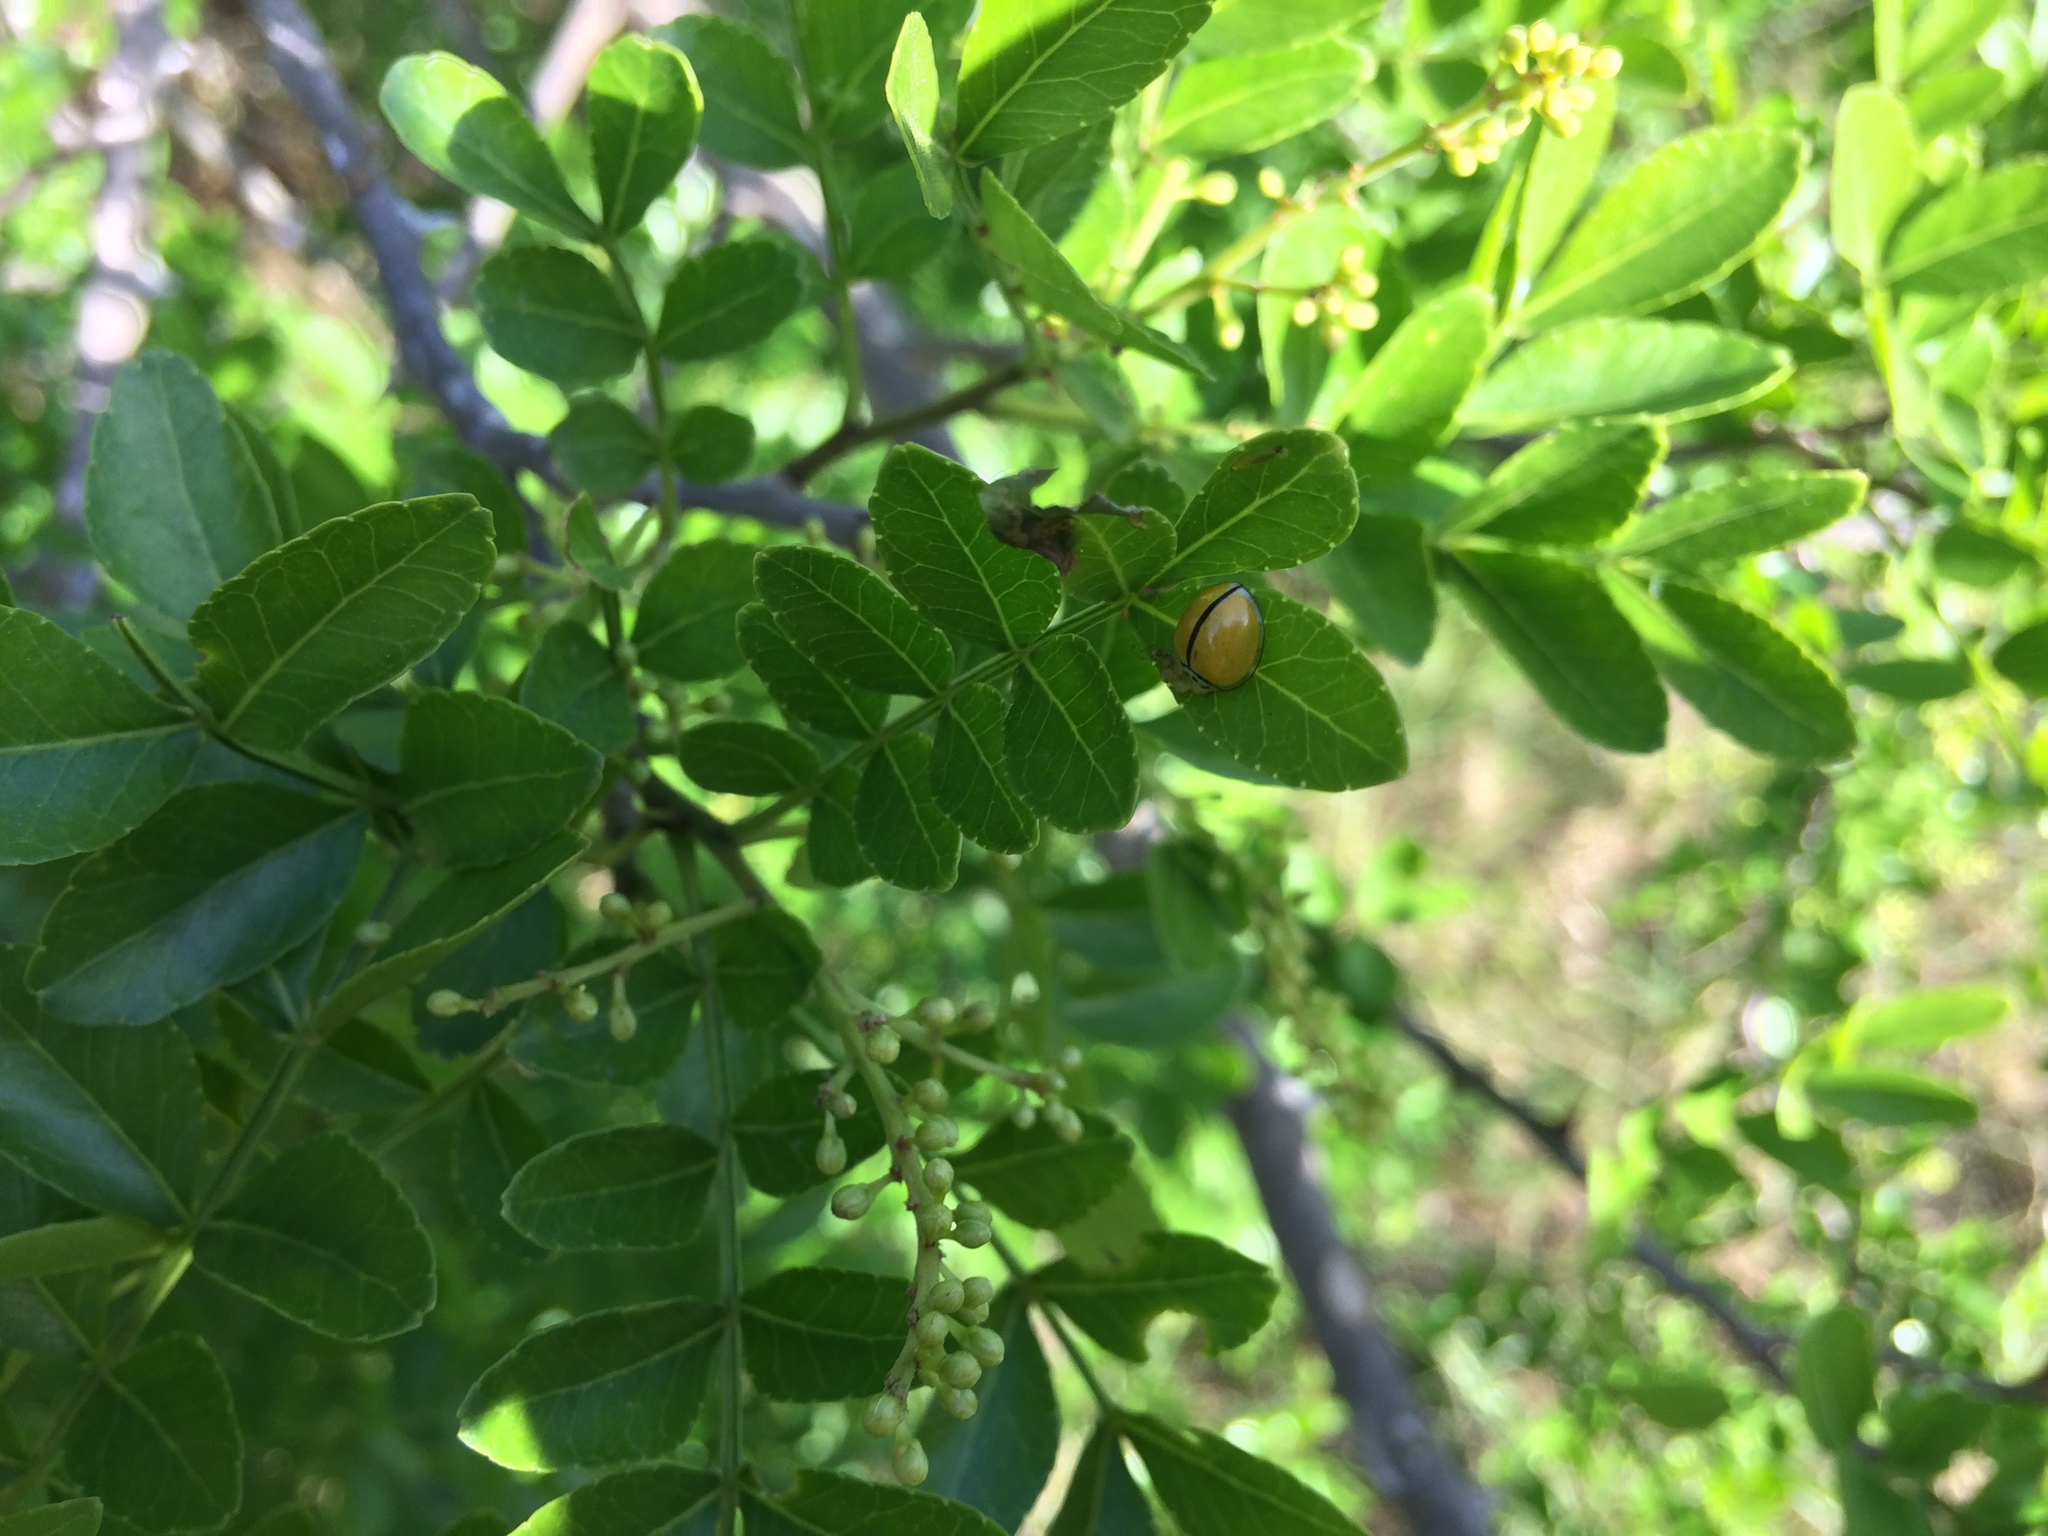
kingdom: Animalia
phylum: Arthropoda
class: Insecta
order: Coleoptera
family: Coccinellidae
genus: Oenopia
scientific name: Oenopia
